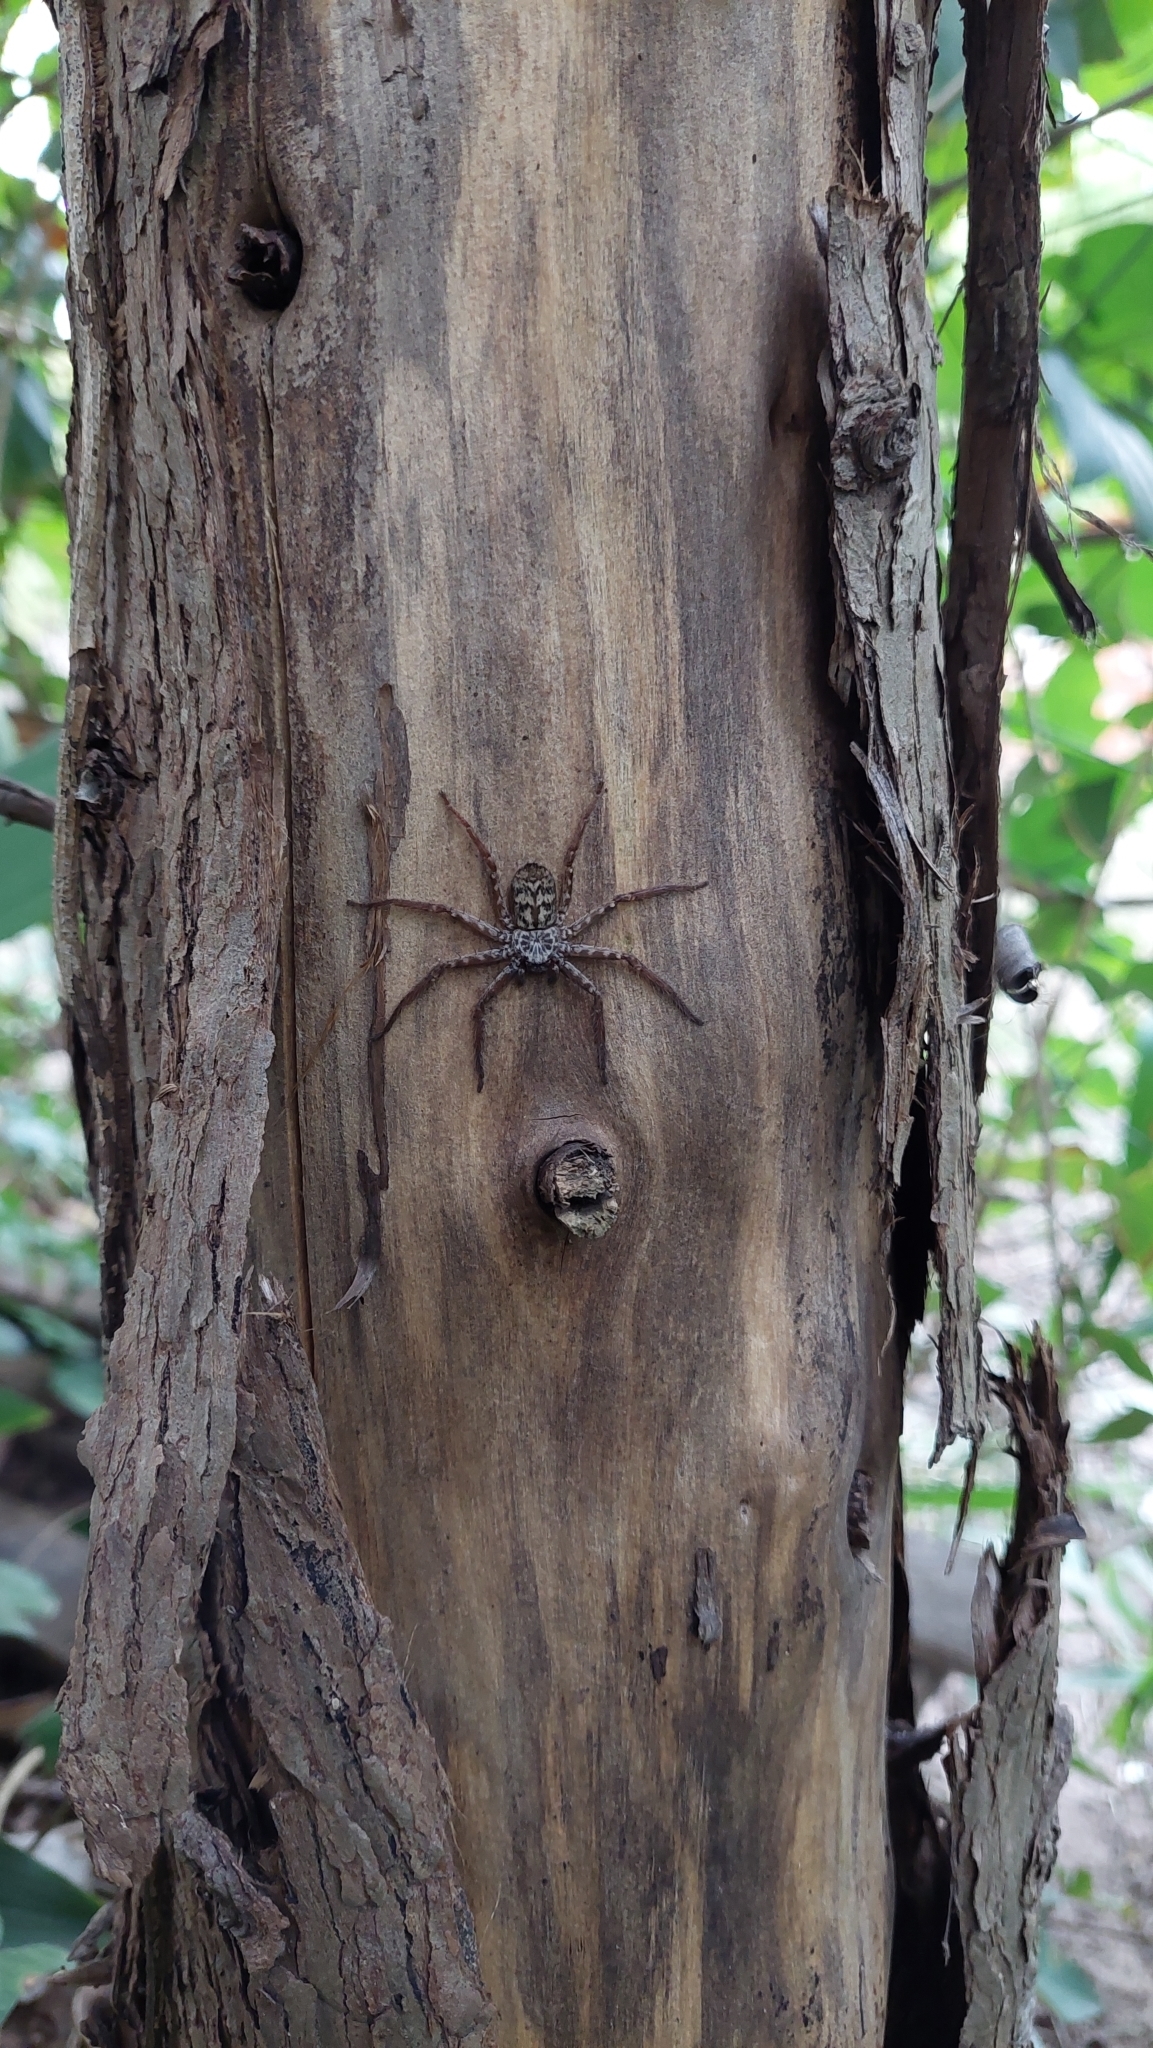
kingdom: Animalia
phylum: Arthropoda
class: Arachnida
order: Araneae
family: Selenopidae
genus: Selenops
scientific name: Selenops
